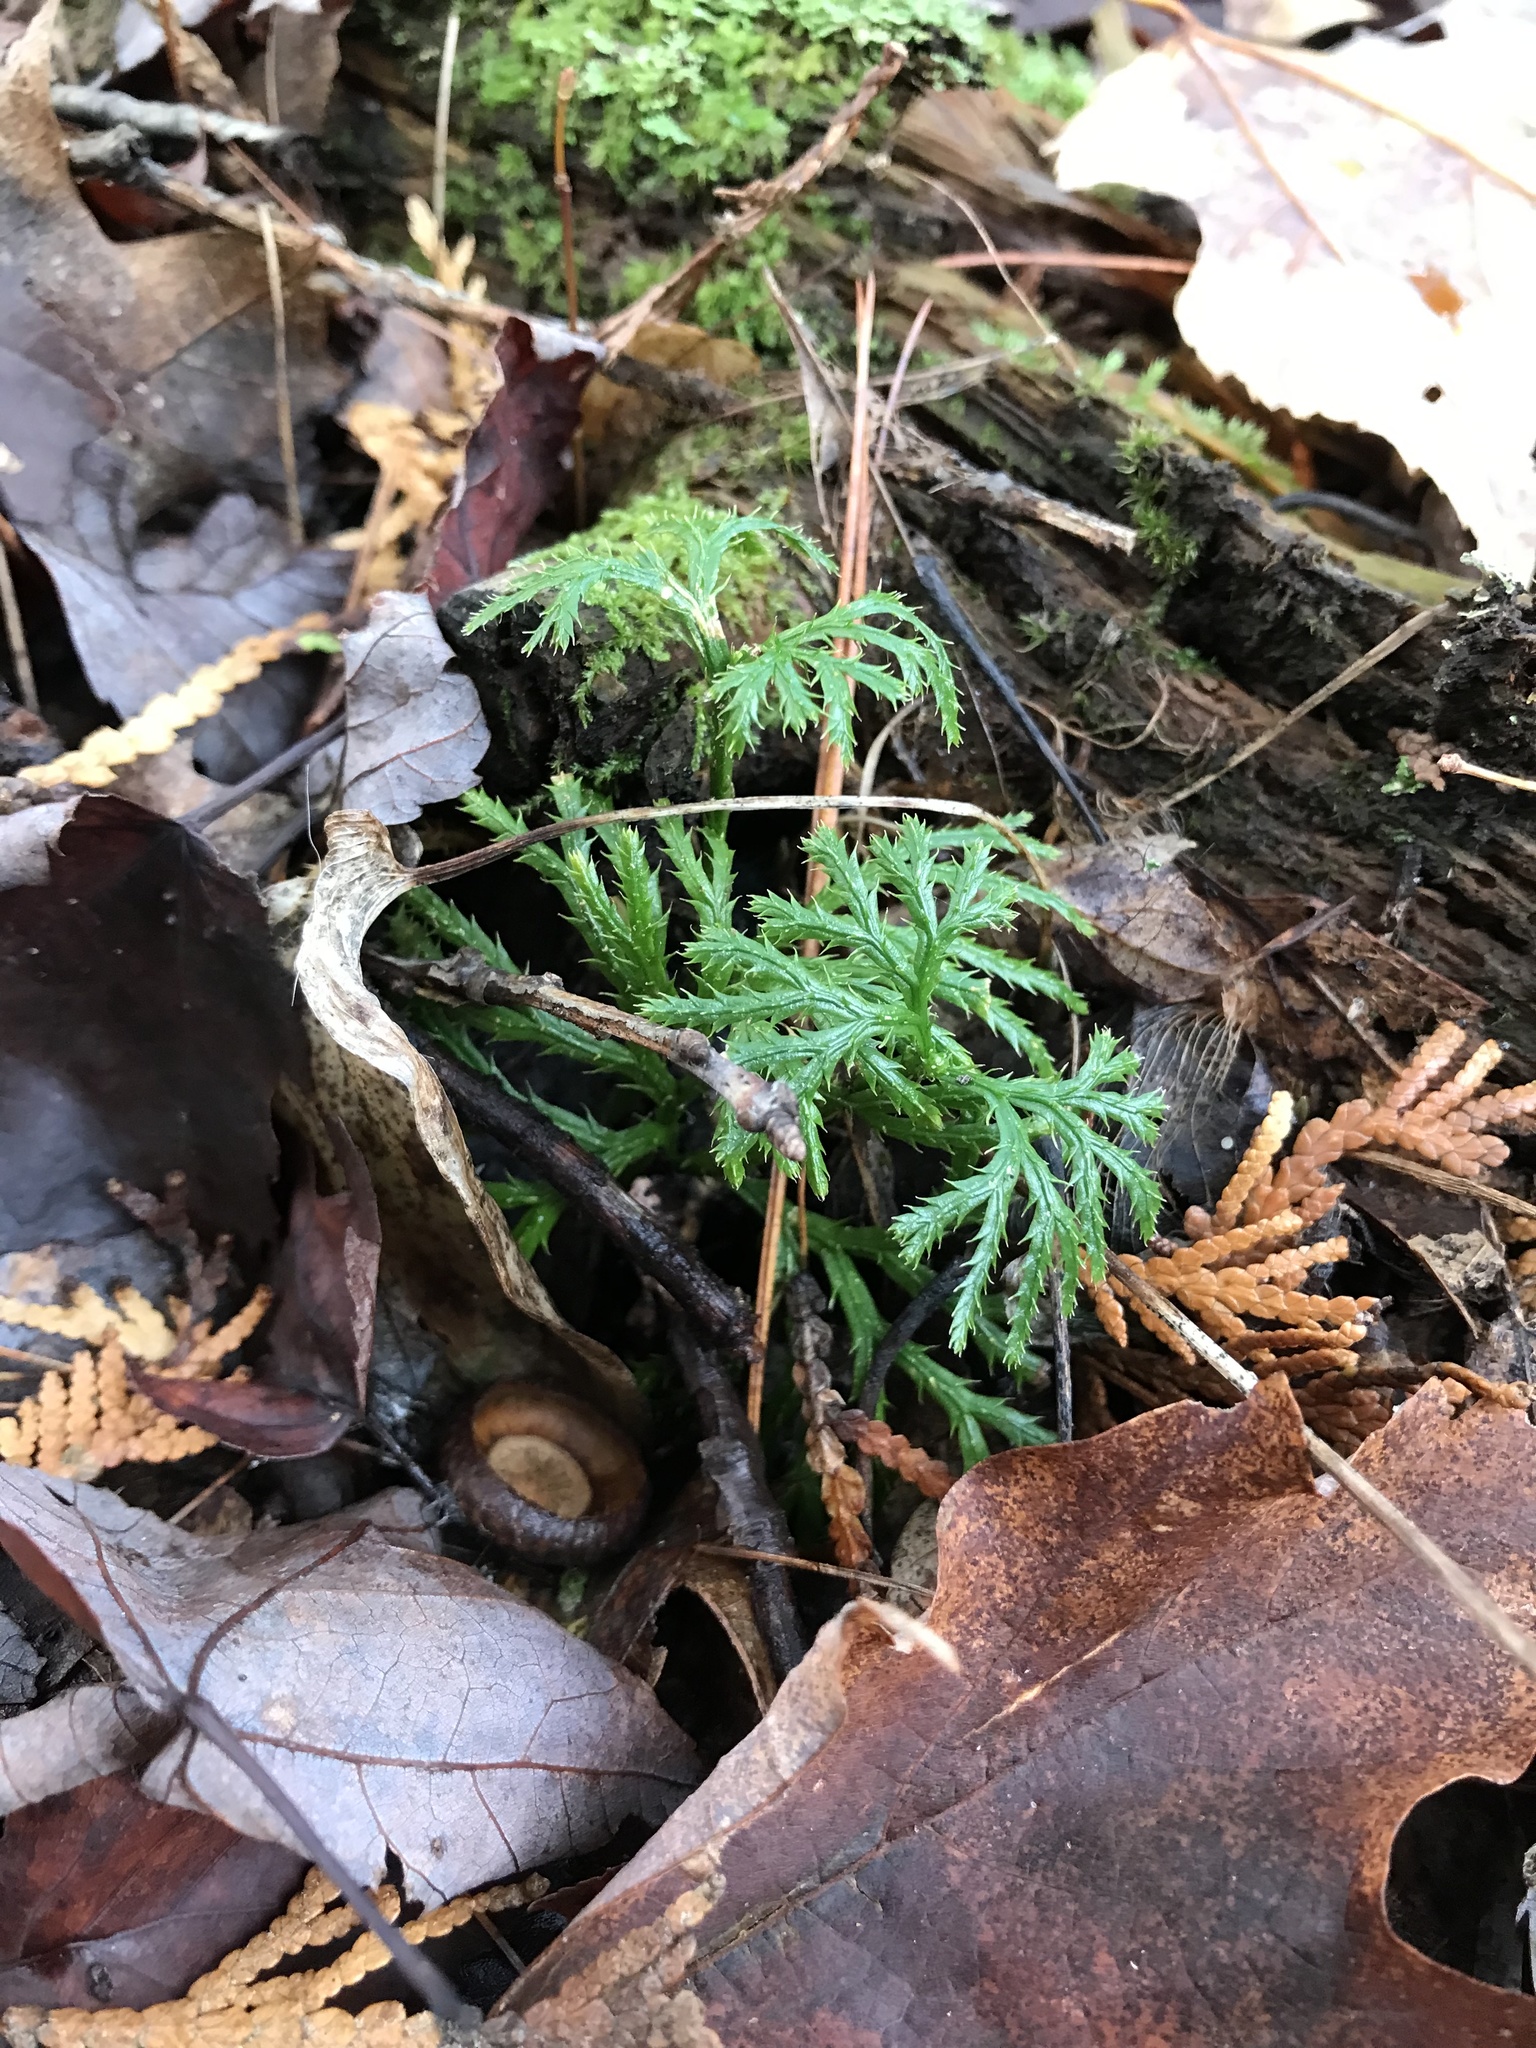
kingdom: Plantae
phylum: Tracheophyta
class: Lycopodiopsida
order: Lycopodiales
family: Lycopodiaceae
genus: Diphasiastrum
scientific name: Diphasiastrum digitatum
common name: Southern running-pine
